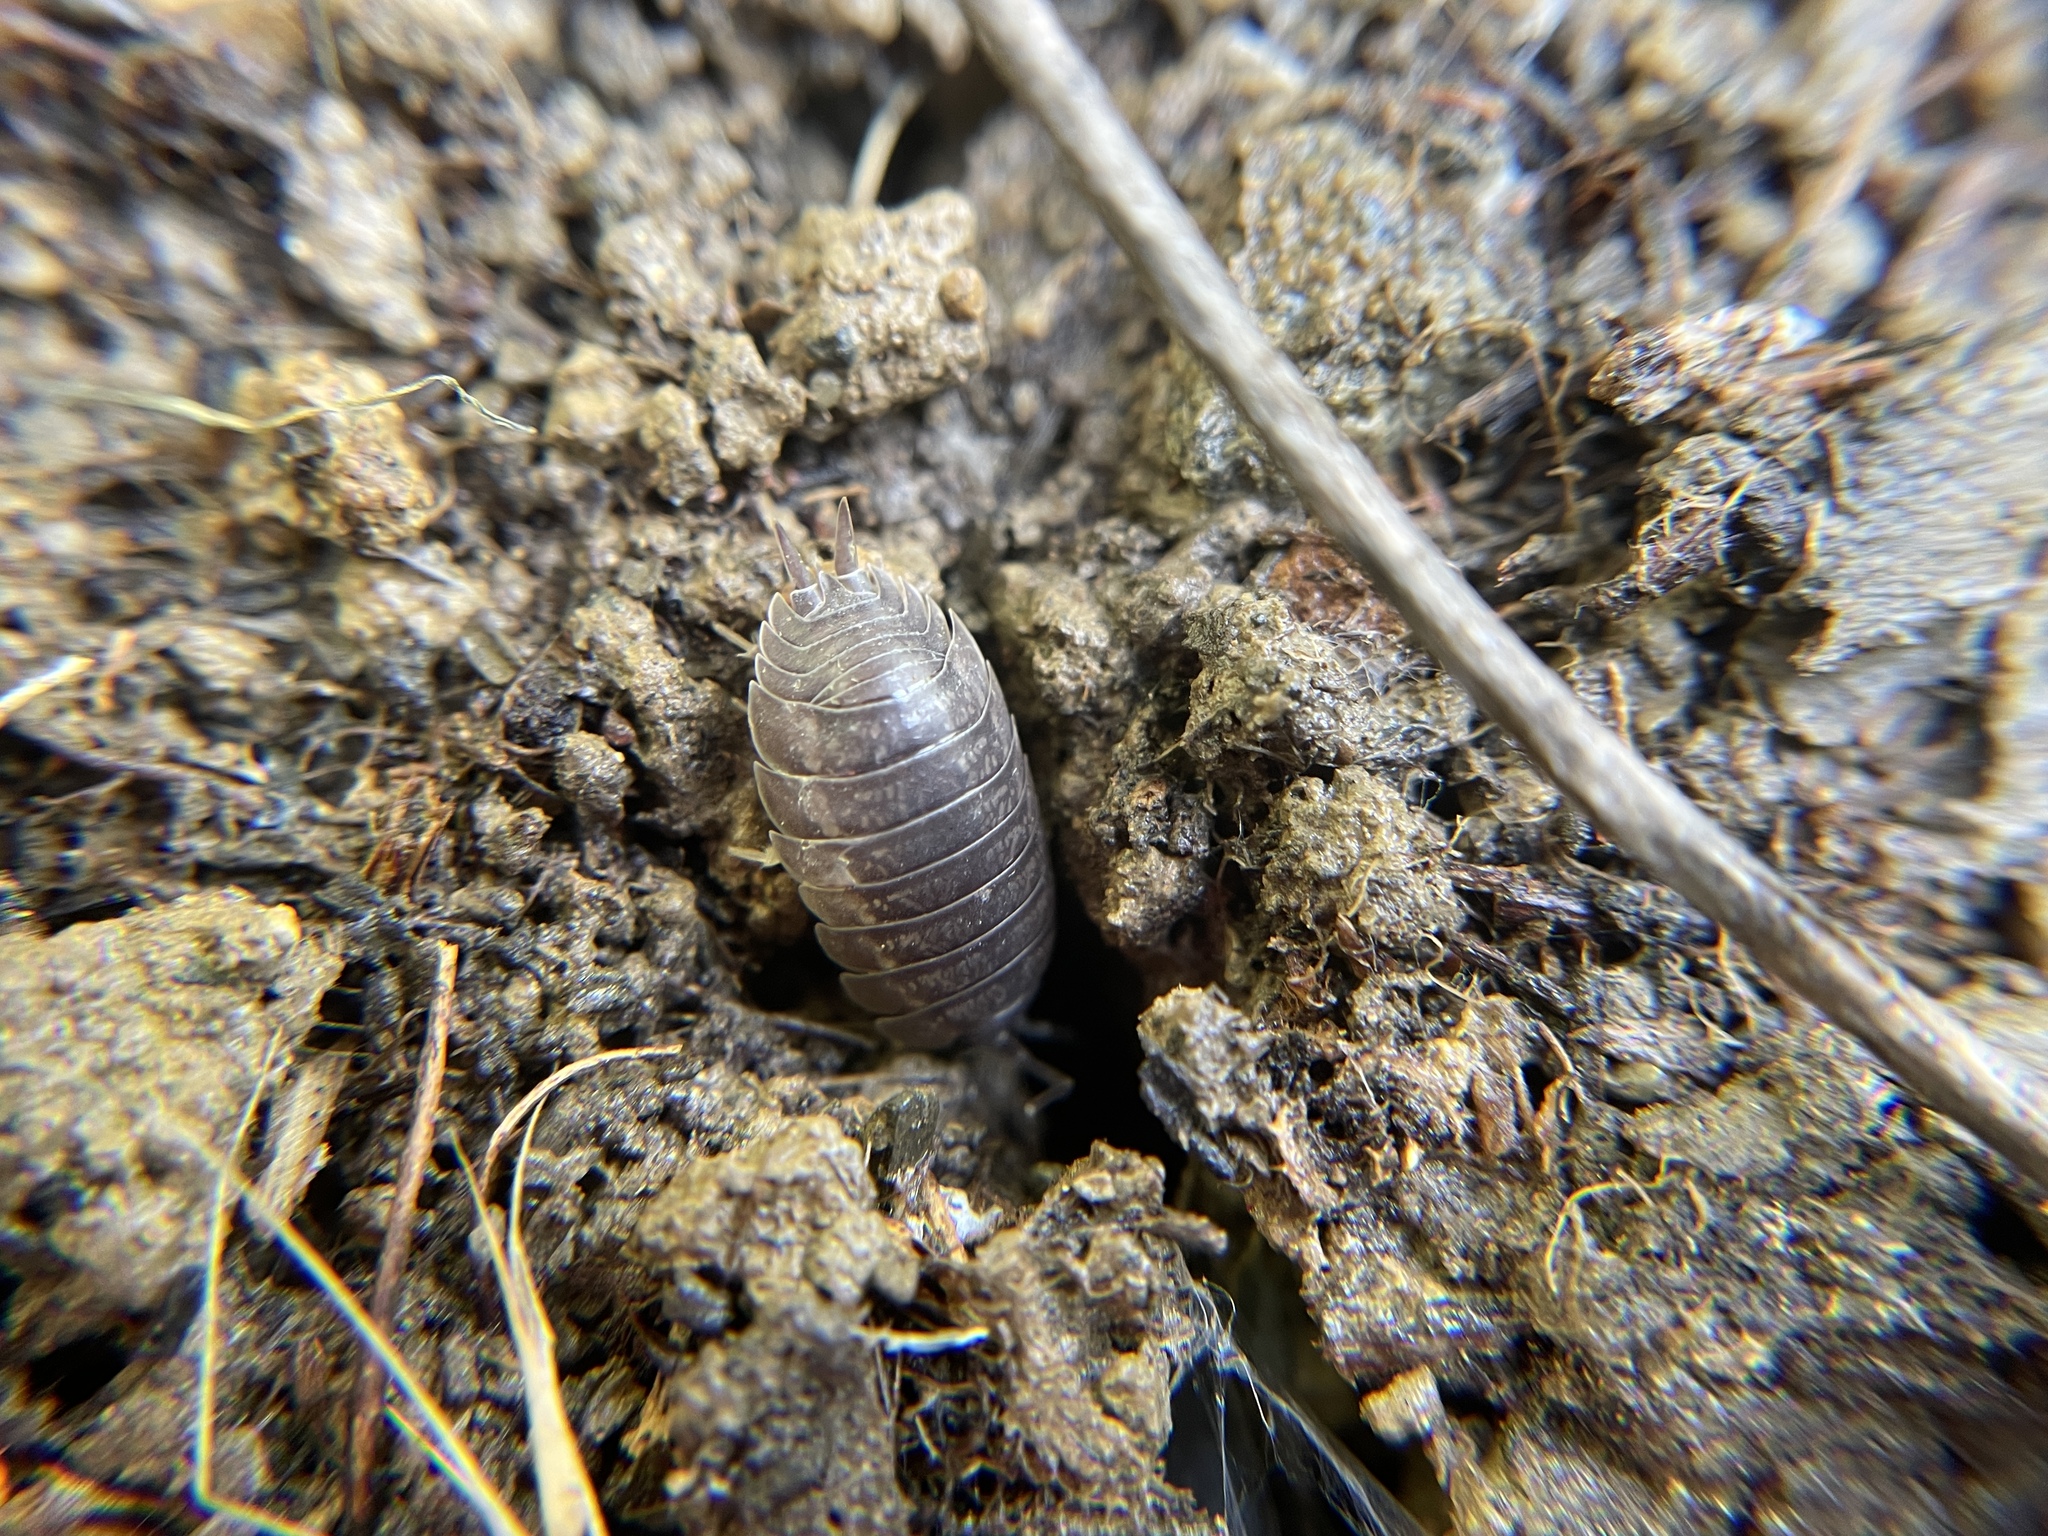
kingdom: Animalia
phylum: Arthropoda
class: Malacostraca
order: Isopoda
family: Porcellionidae
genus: Porcellio
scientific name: Porcellio laevis
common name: Swift woodlouse
